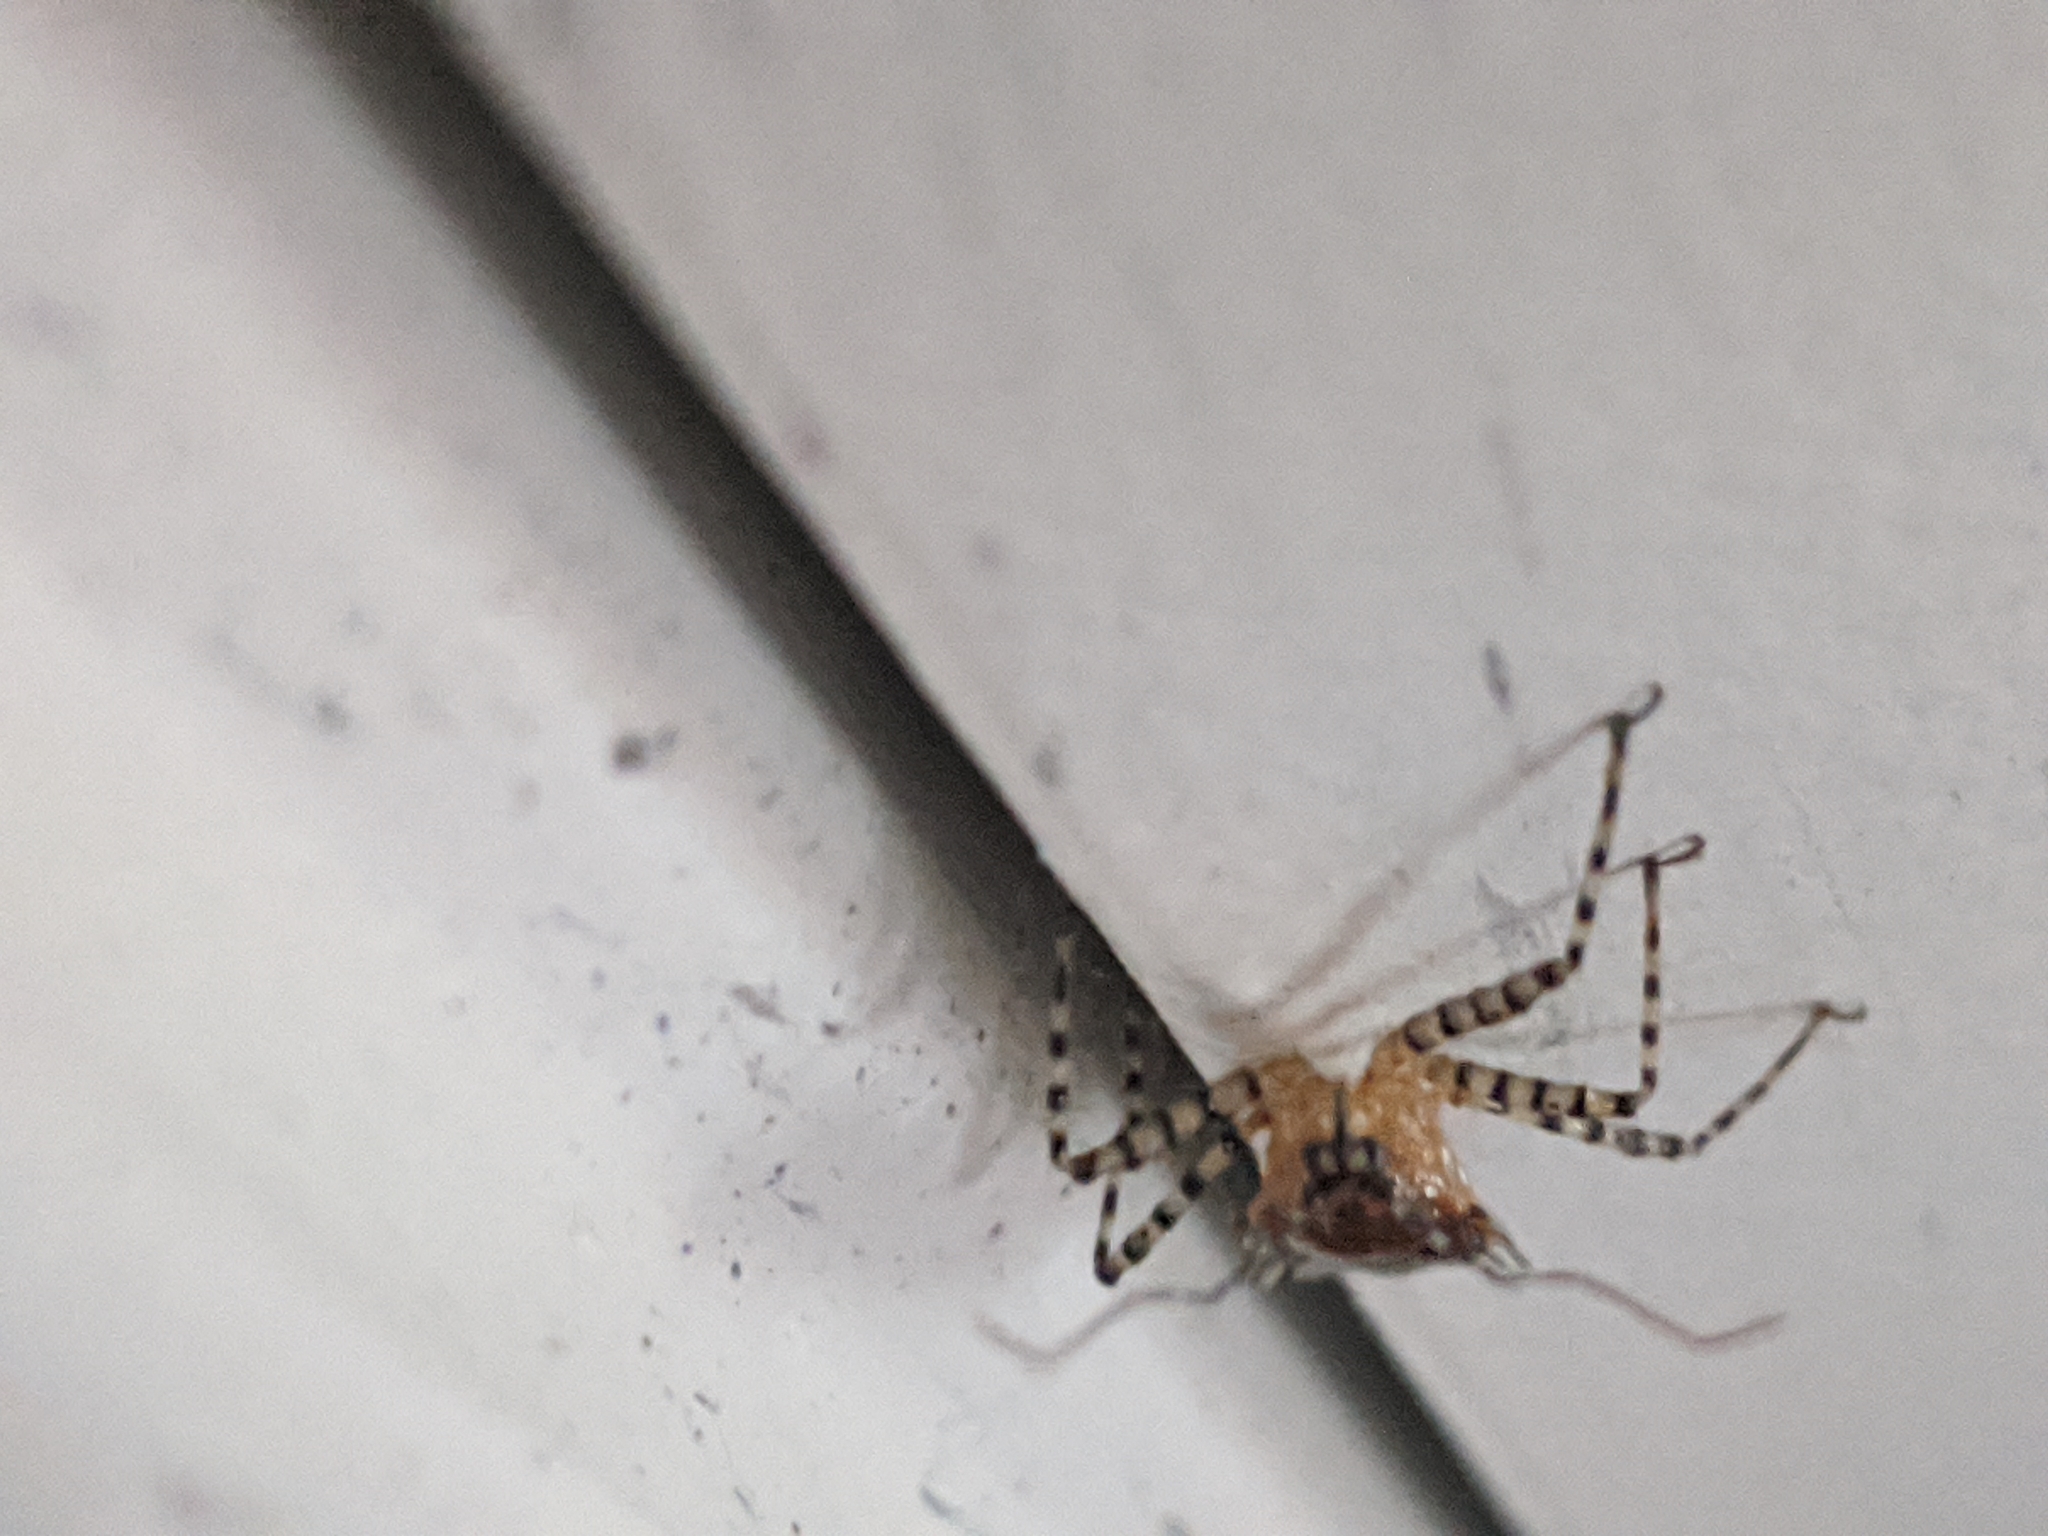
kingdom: Animalia
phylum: Arthropoda
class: Insecta
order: Hemiptera
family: Reduviidae
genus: Pselliopus
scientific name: Pselliopus cinctus
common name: Ringed assassin bug
